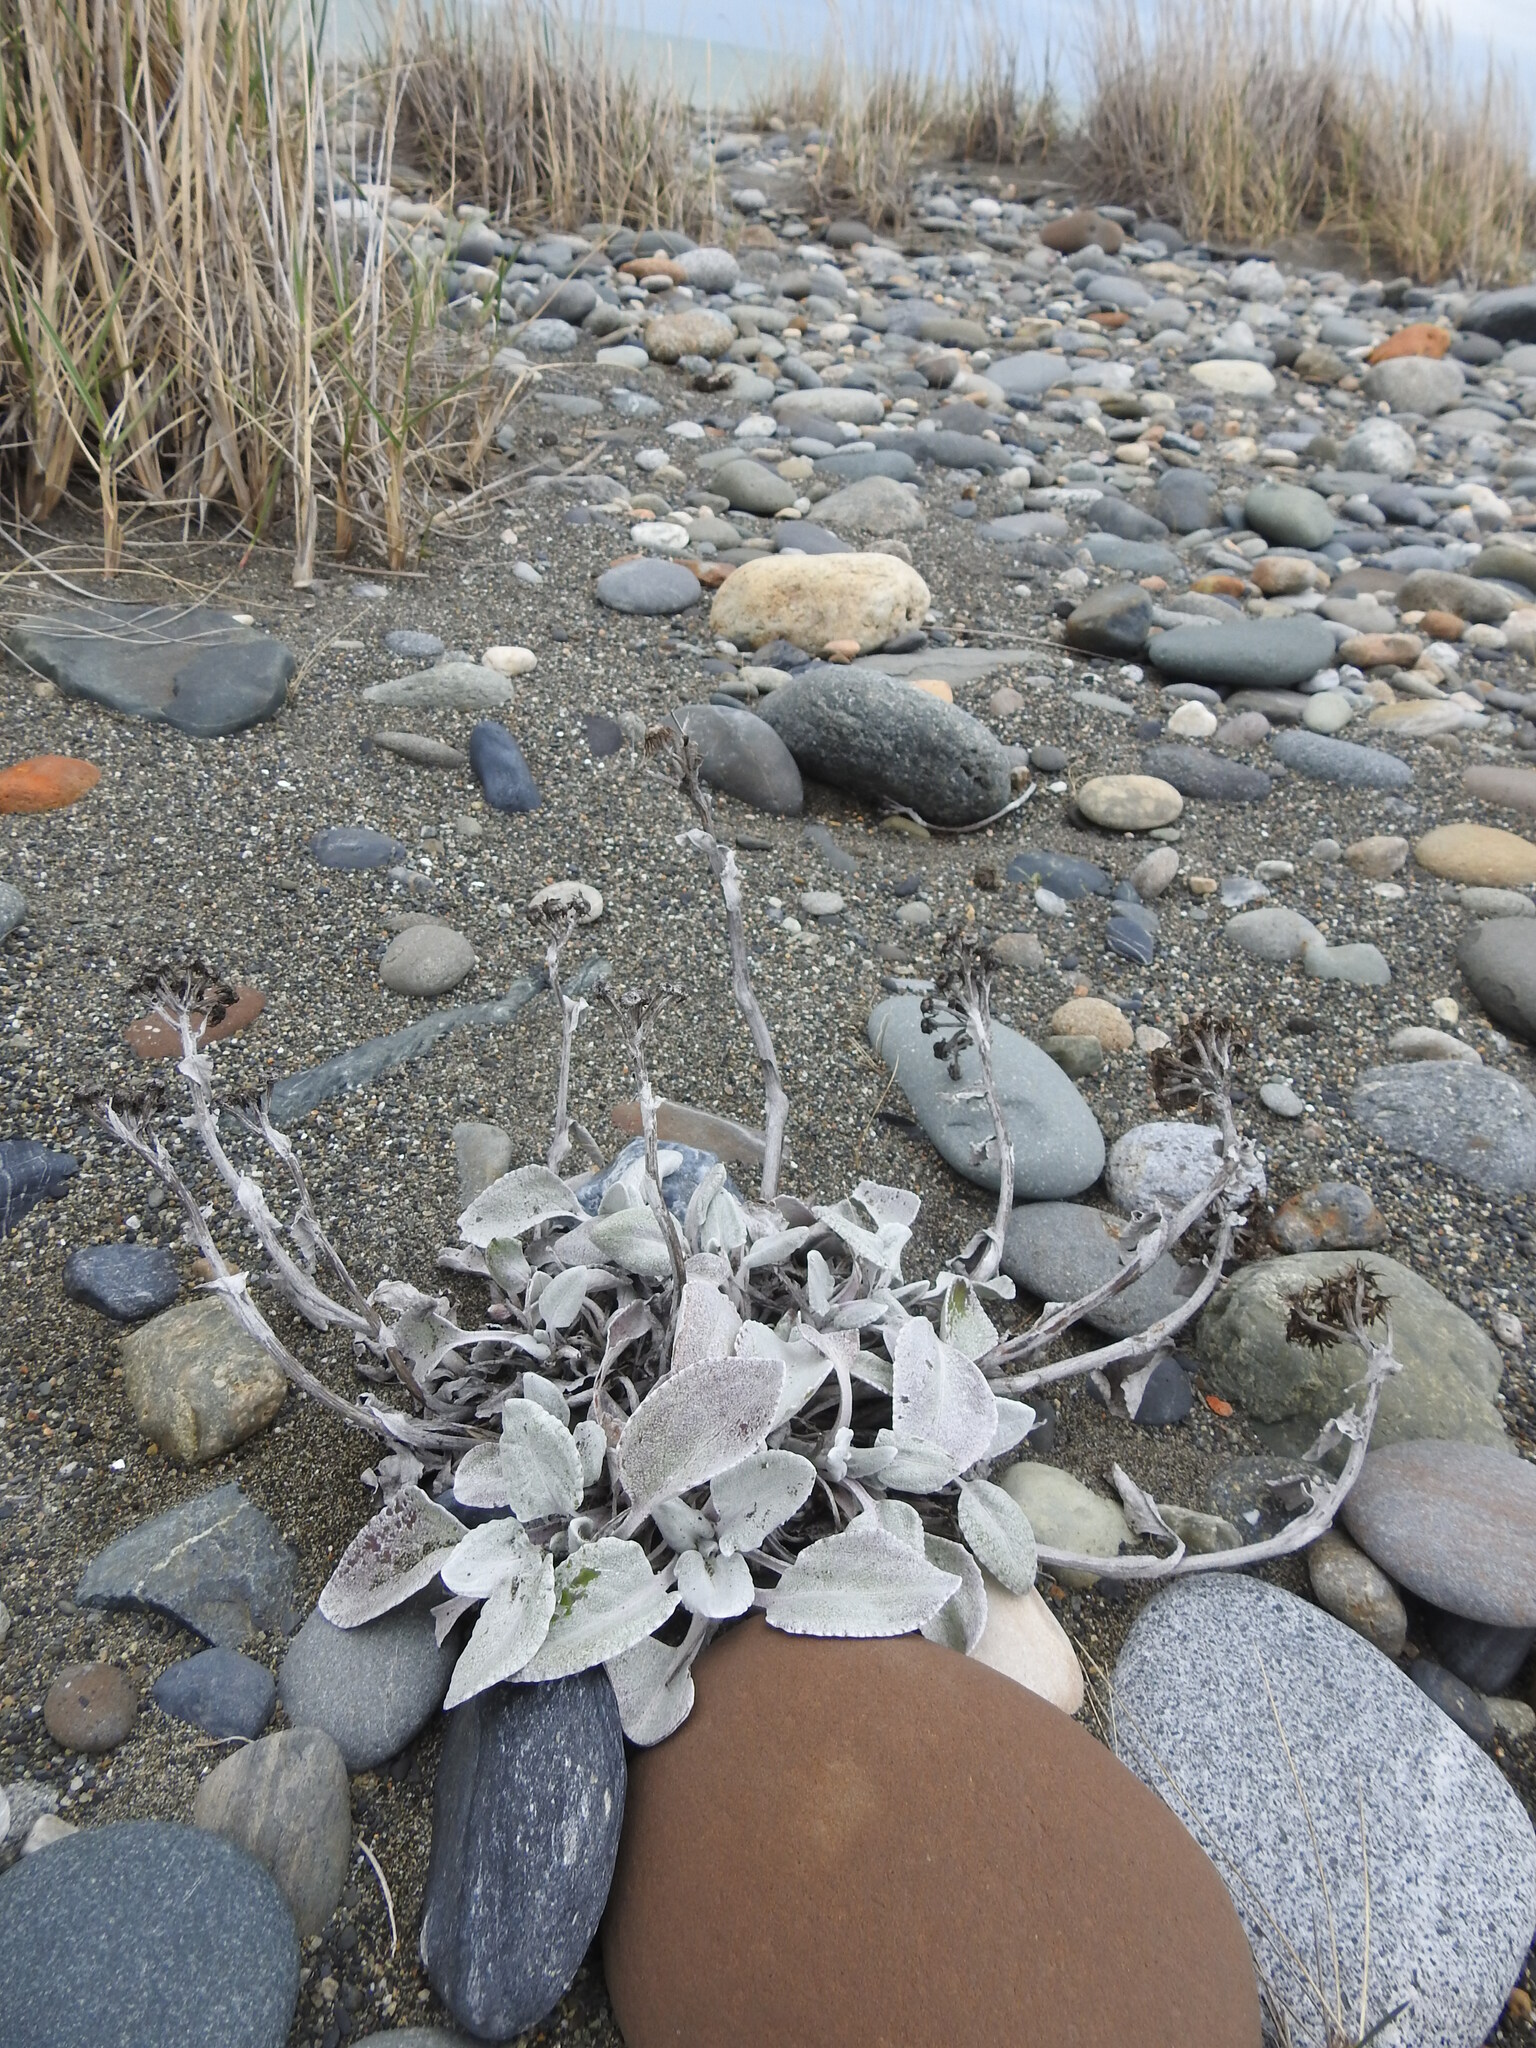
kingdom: Plantae
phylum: Tracheophyta
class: Magnoliopsida
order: Asterales
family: Asteraceae
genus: Senecio
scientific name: Senecio candidans
